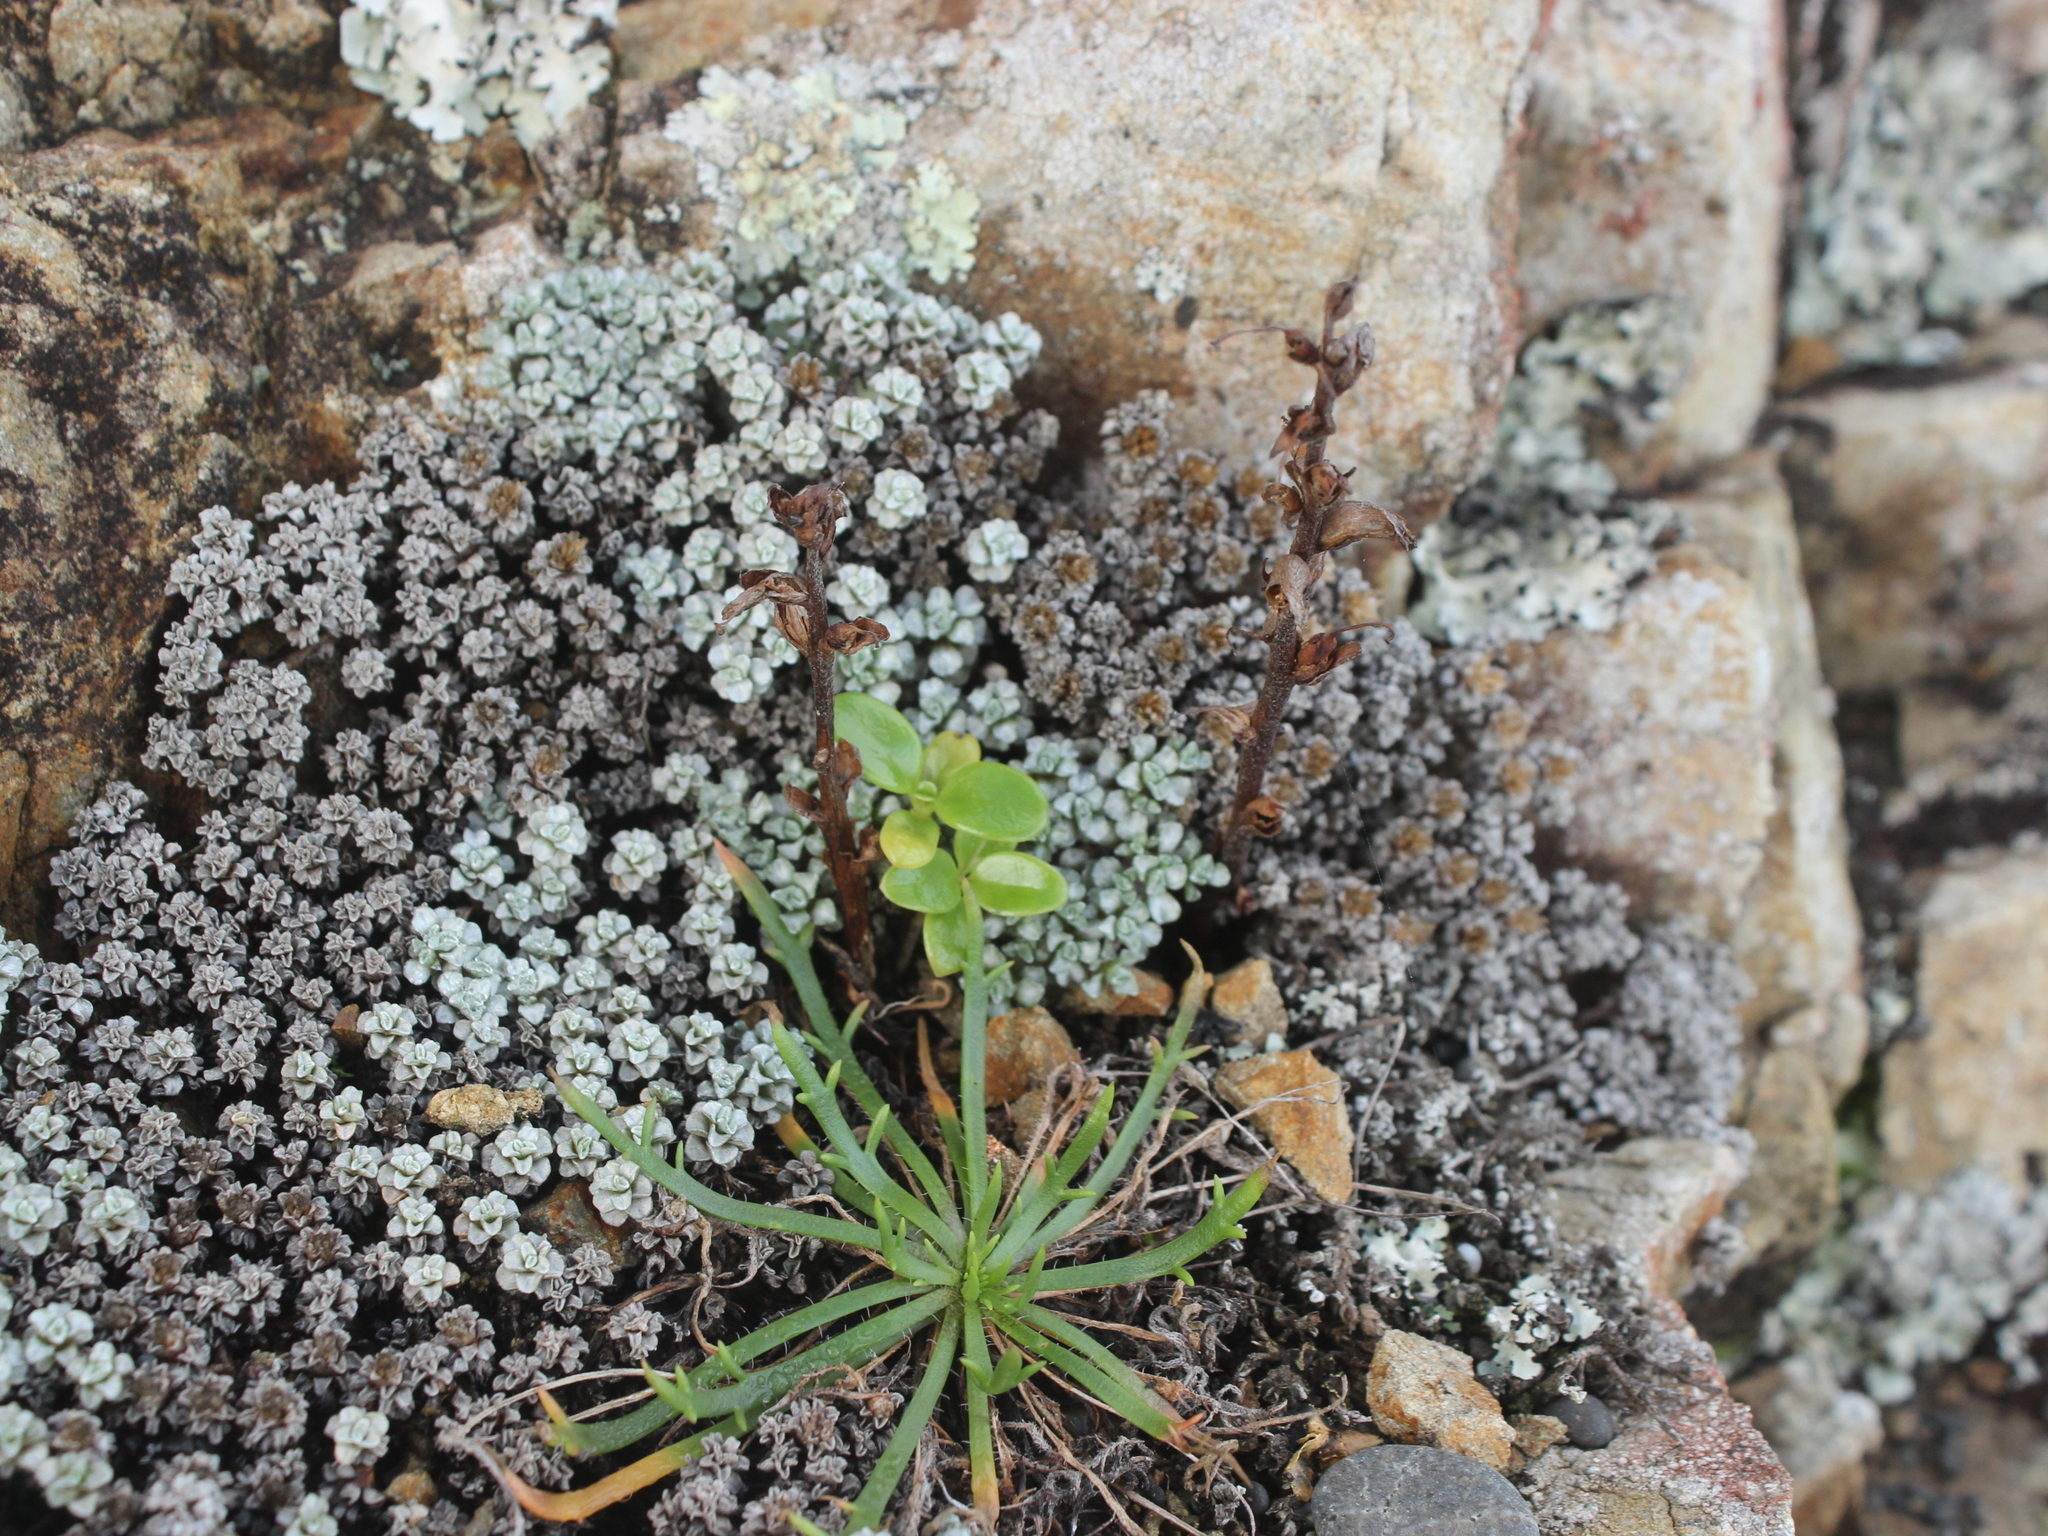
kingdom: Plantae
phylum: Tracheophyta
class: Magnoliopsida
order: Lamiales
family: Orobanchaceae
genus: Orobanche
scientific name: Orobanche minor
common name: Common broomrape
